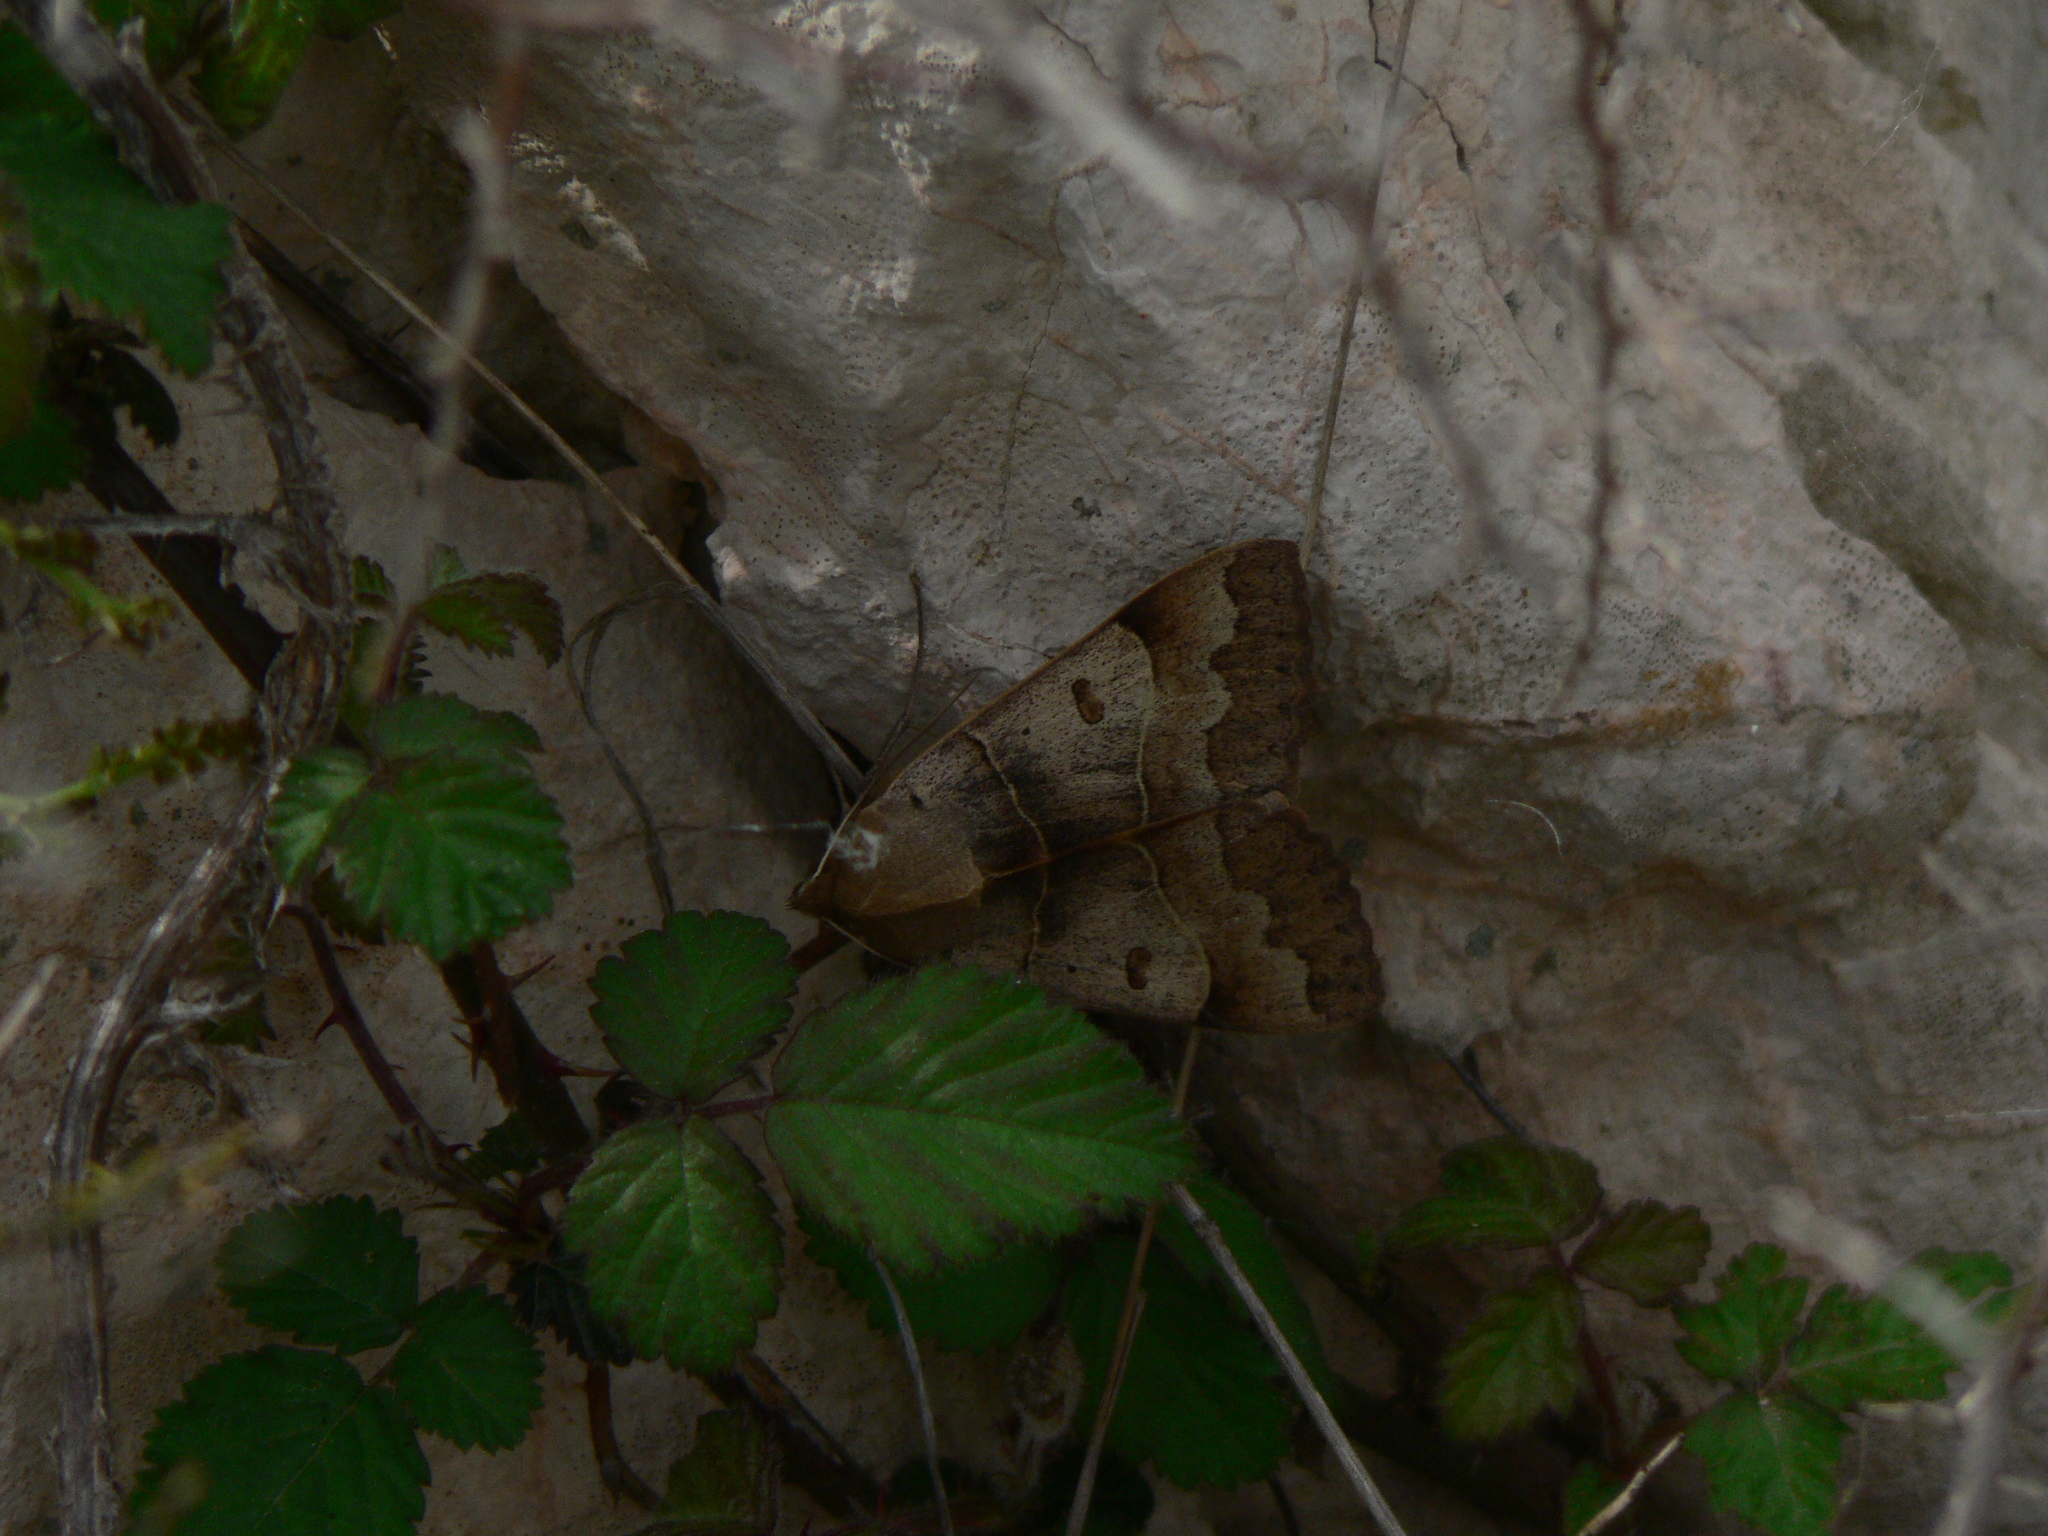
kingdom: Animalia
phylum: Arthropoda
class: Insecta
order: Lepidoptera
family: Erebidae
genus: Minucia
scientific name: Minucia lunaris
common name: Lunar double-stripe
